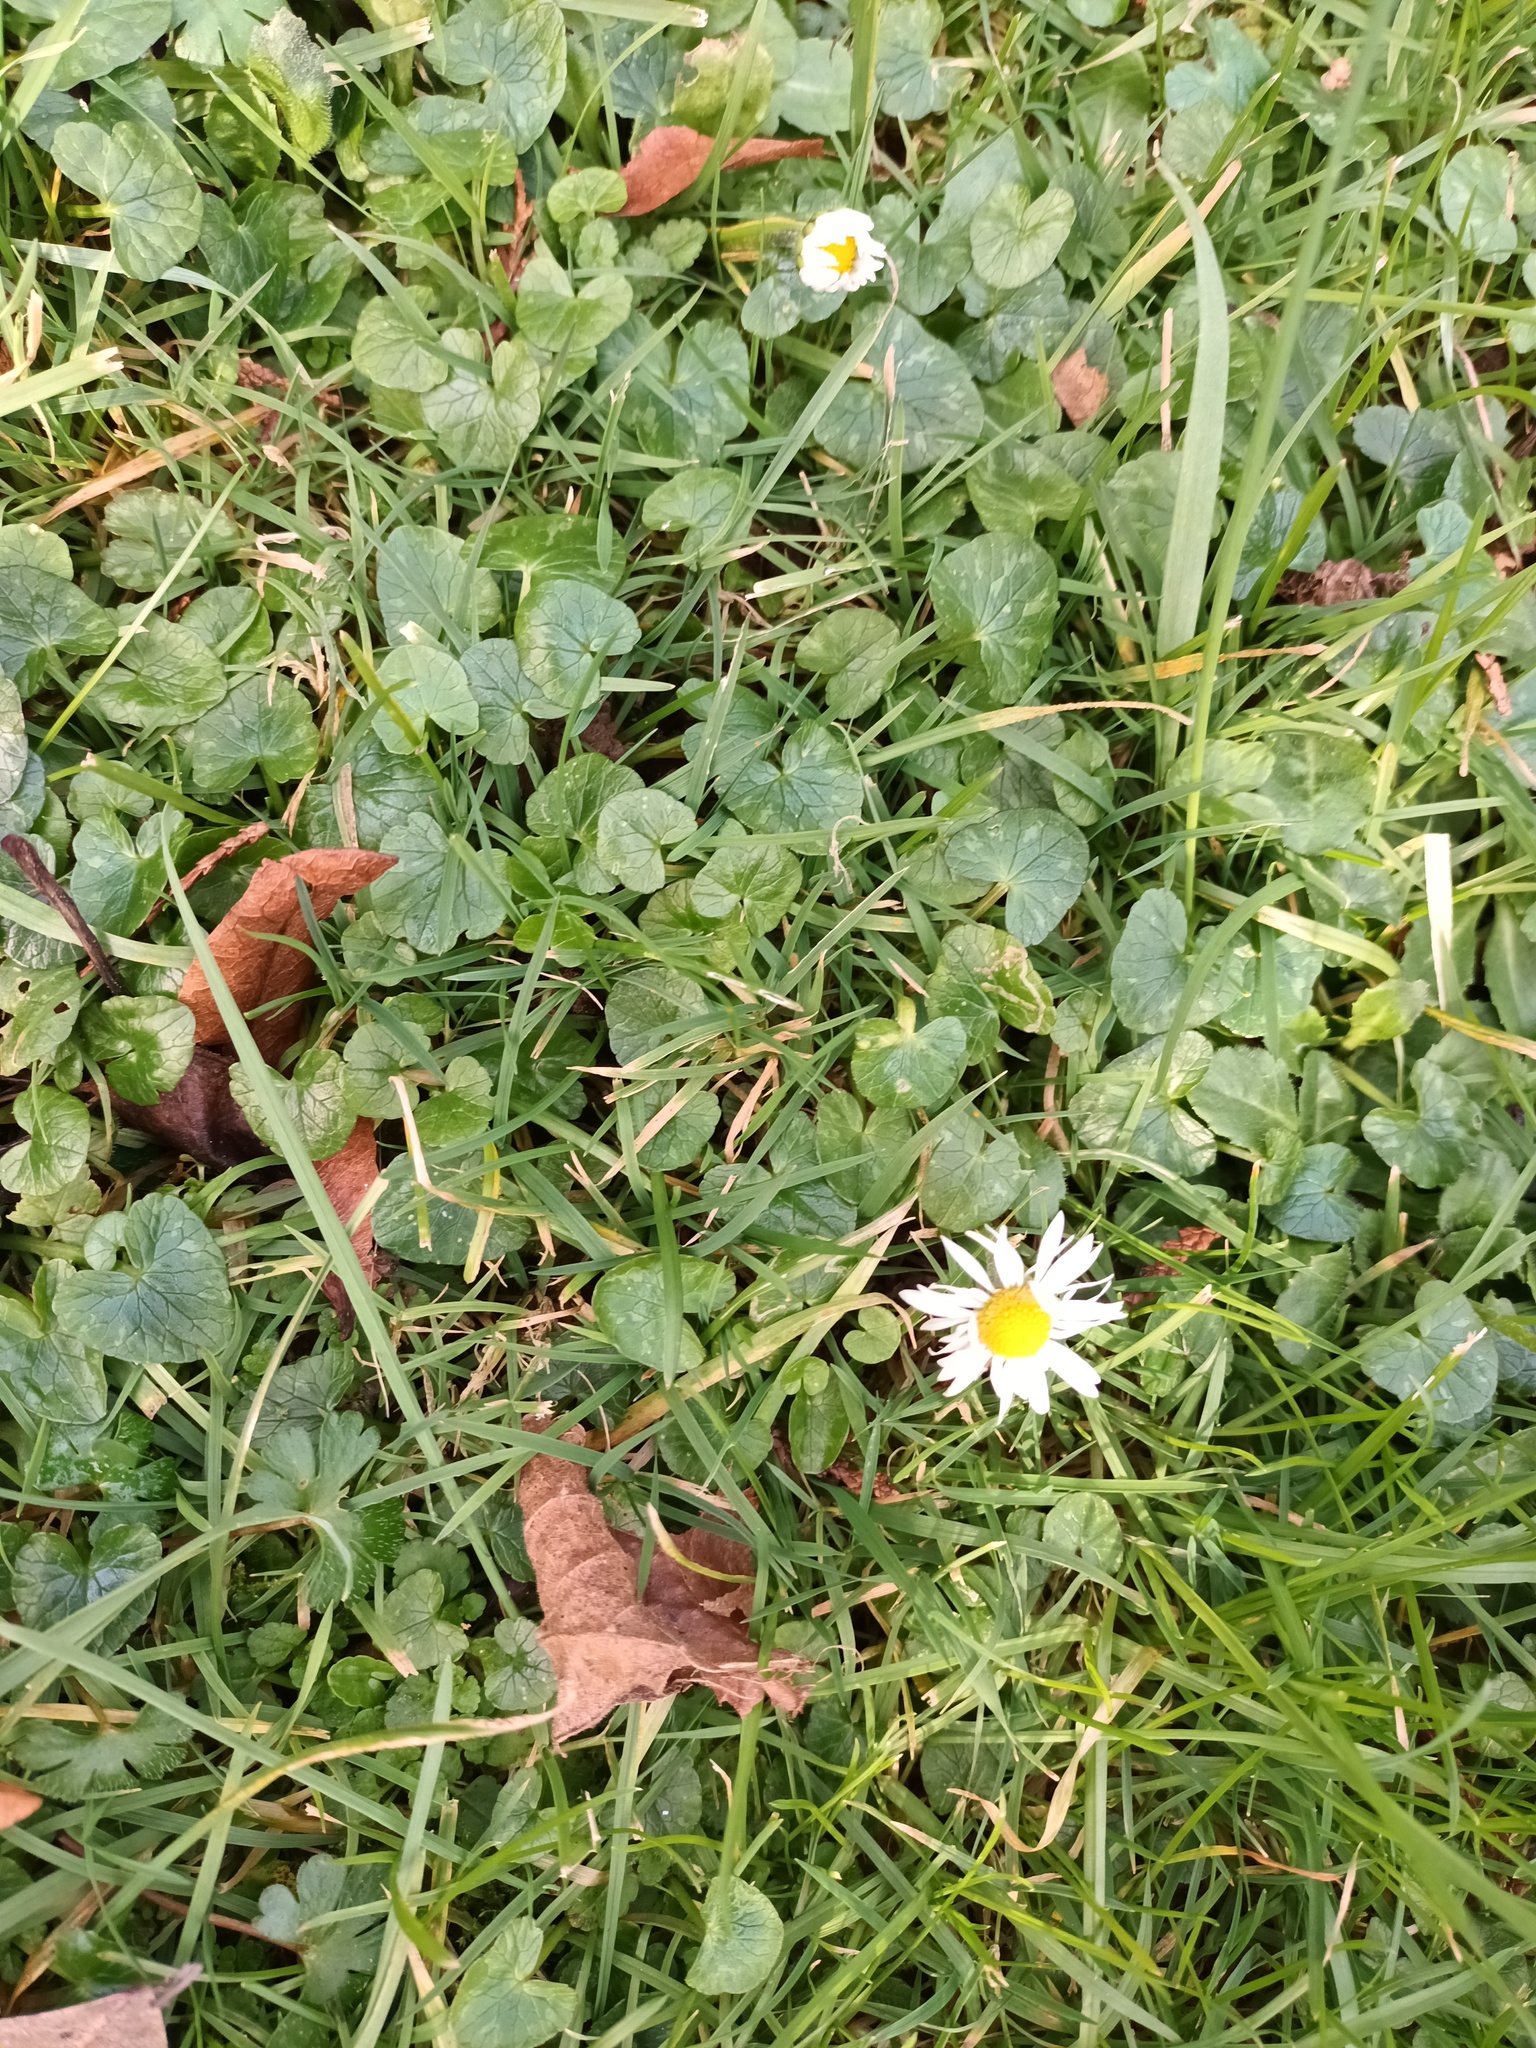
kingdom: Plantae
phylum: Tracheophyta
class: Magnoliopsida
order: Asterales
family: Asteraceae
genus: Bellis
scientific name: Bellis perennis
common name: Lawndaisy
